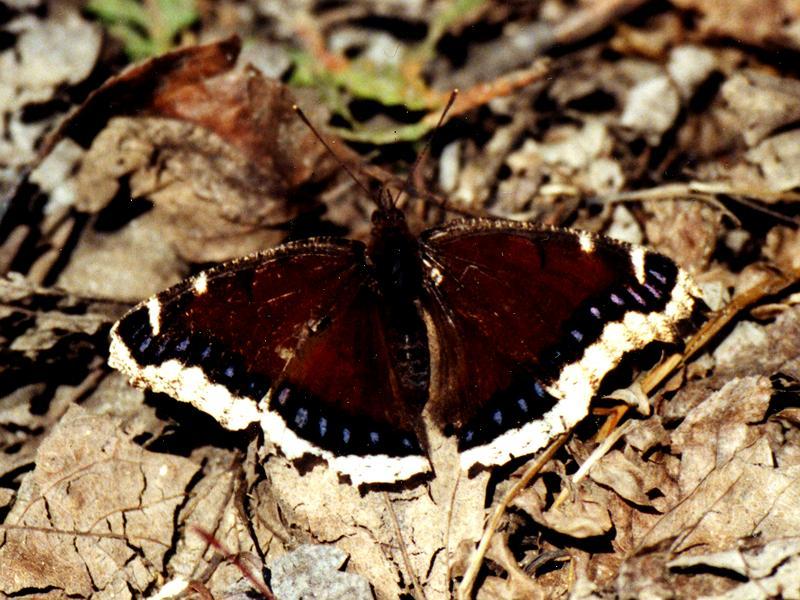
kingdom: Animalia
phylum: Arthropoda
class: Insecta
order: Lepidoptera
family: Nymphalidae
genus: Nymphalis
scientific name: Nymphalis antiopa
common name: Camberwell beauty
